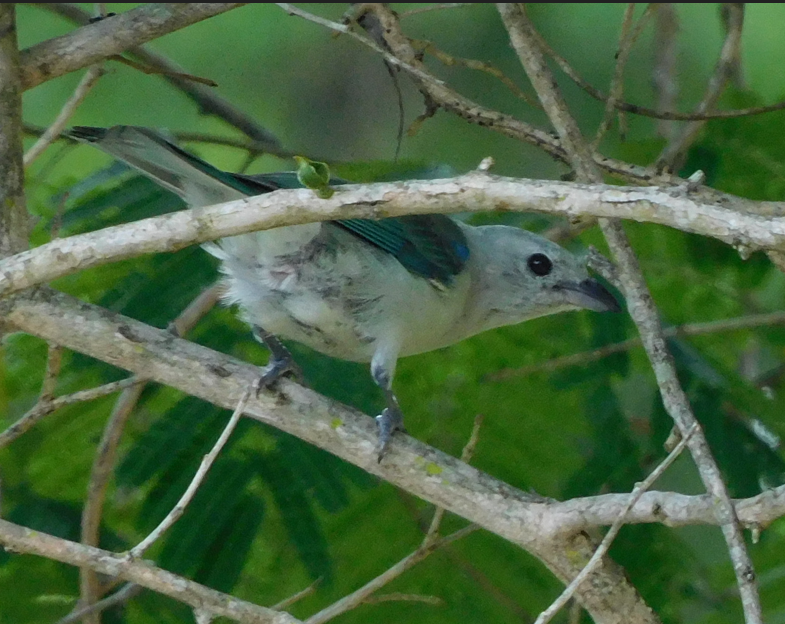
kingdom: Animalia
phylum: Chordata
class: Aves
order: Passeriformes
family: Thraupidae
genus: Thraupis
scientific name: Thraupis episcopus
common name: Blue-grey tanager
